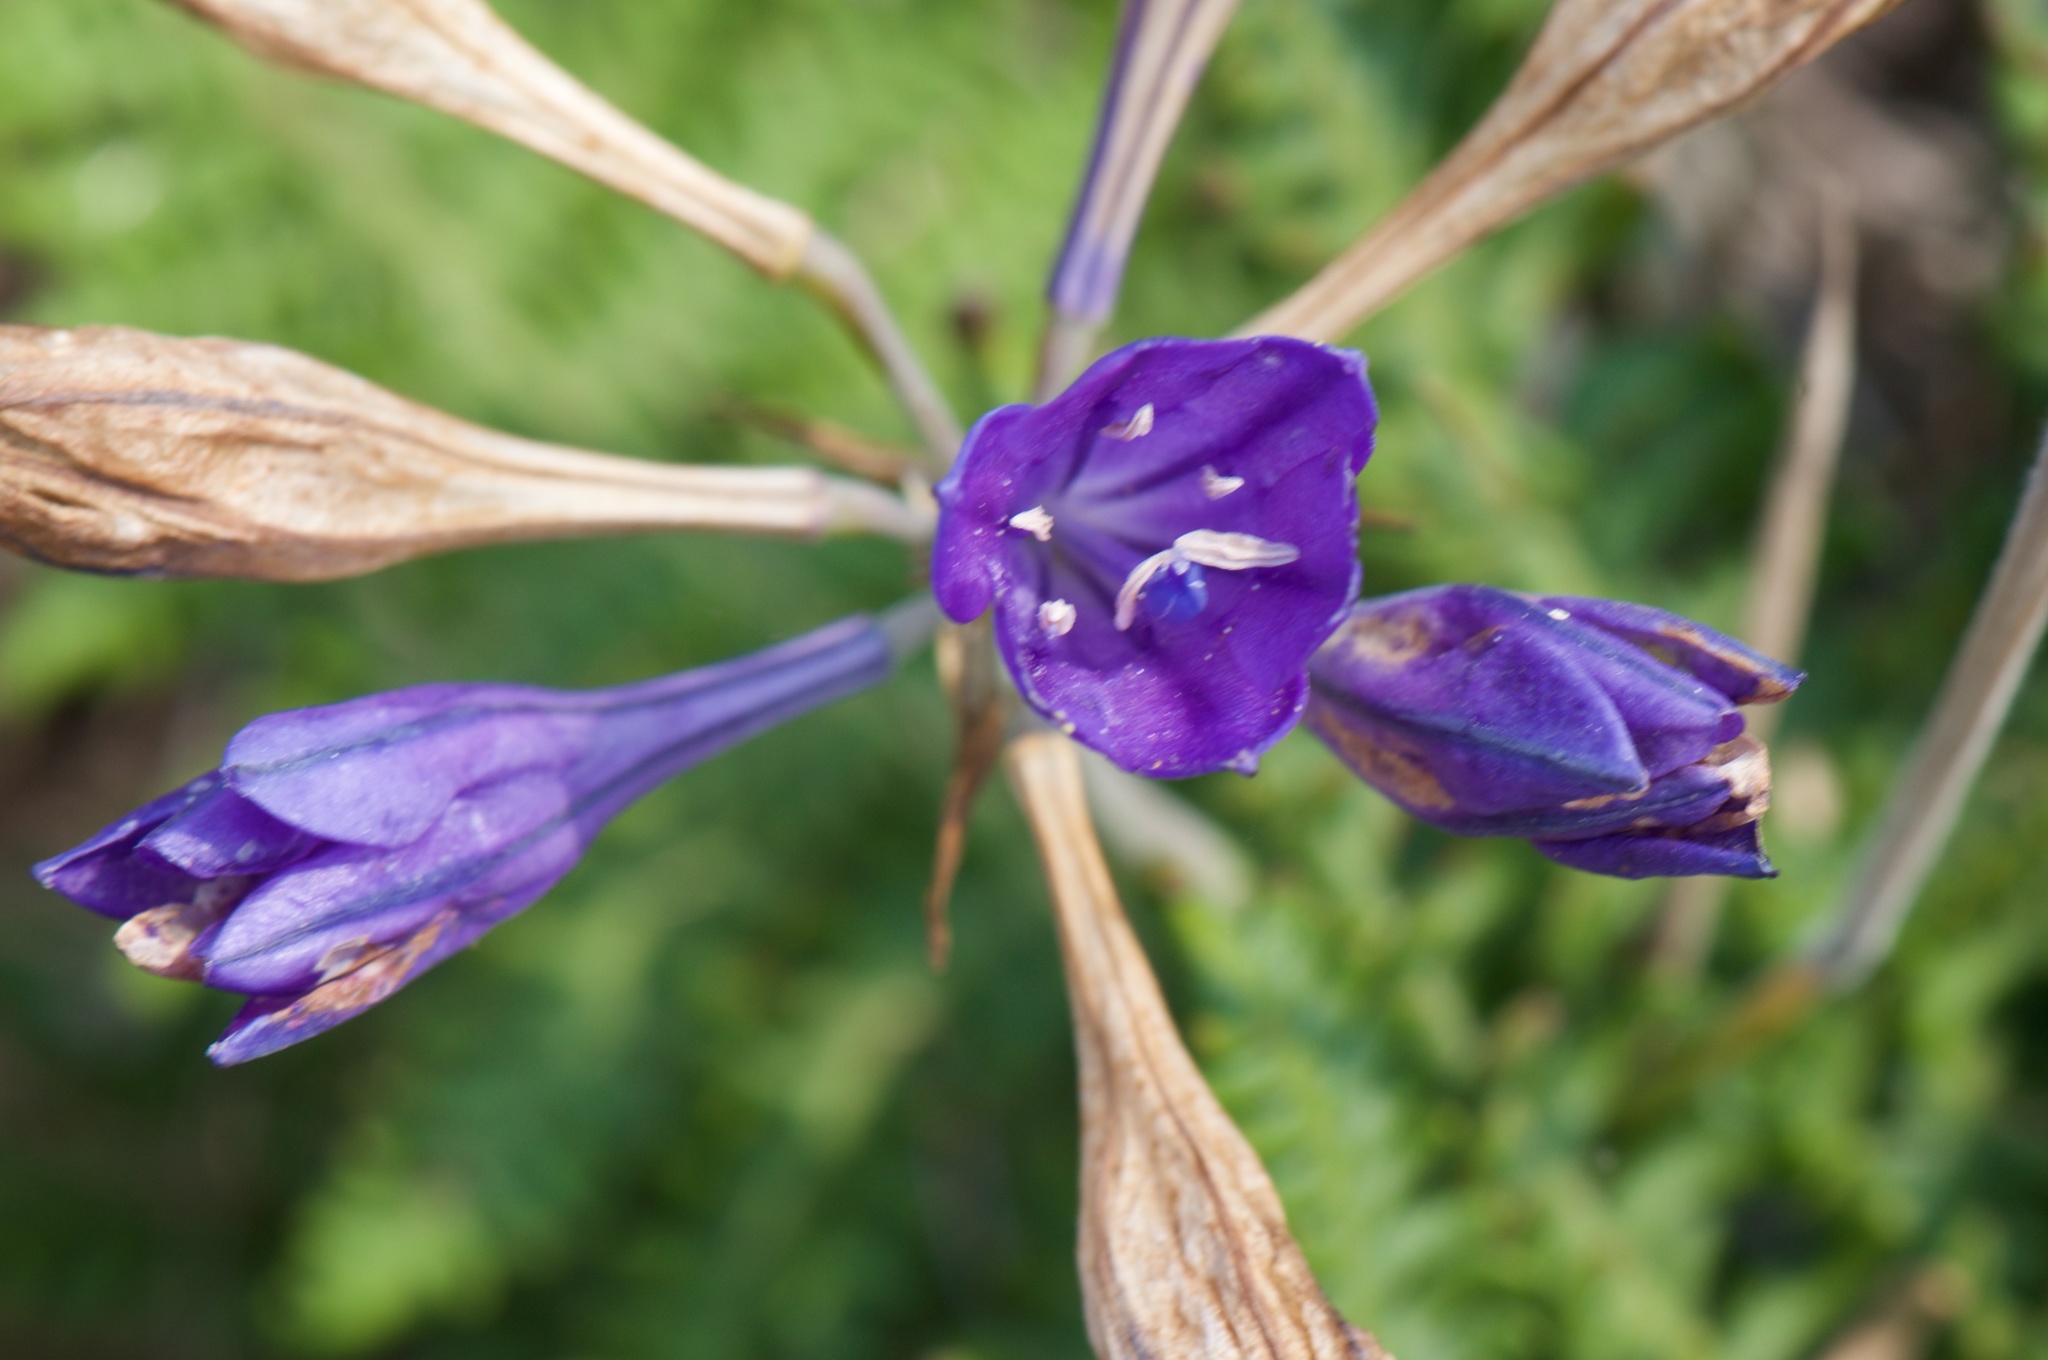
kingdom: Plantae
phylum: Tracheophyta
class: Liliopsida
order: Asparagales
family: Asparagaceae
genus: Triteleia
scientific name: Triteleia laxa
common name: Triplet-lily
